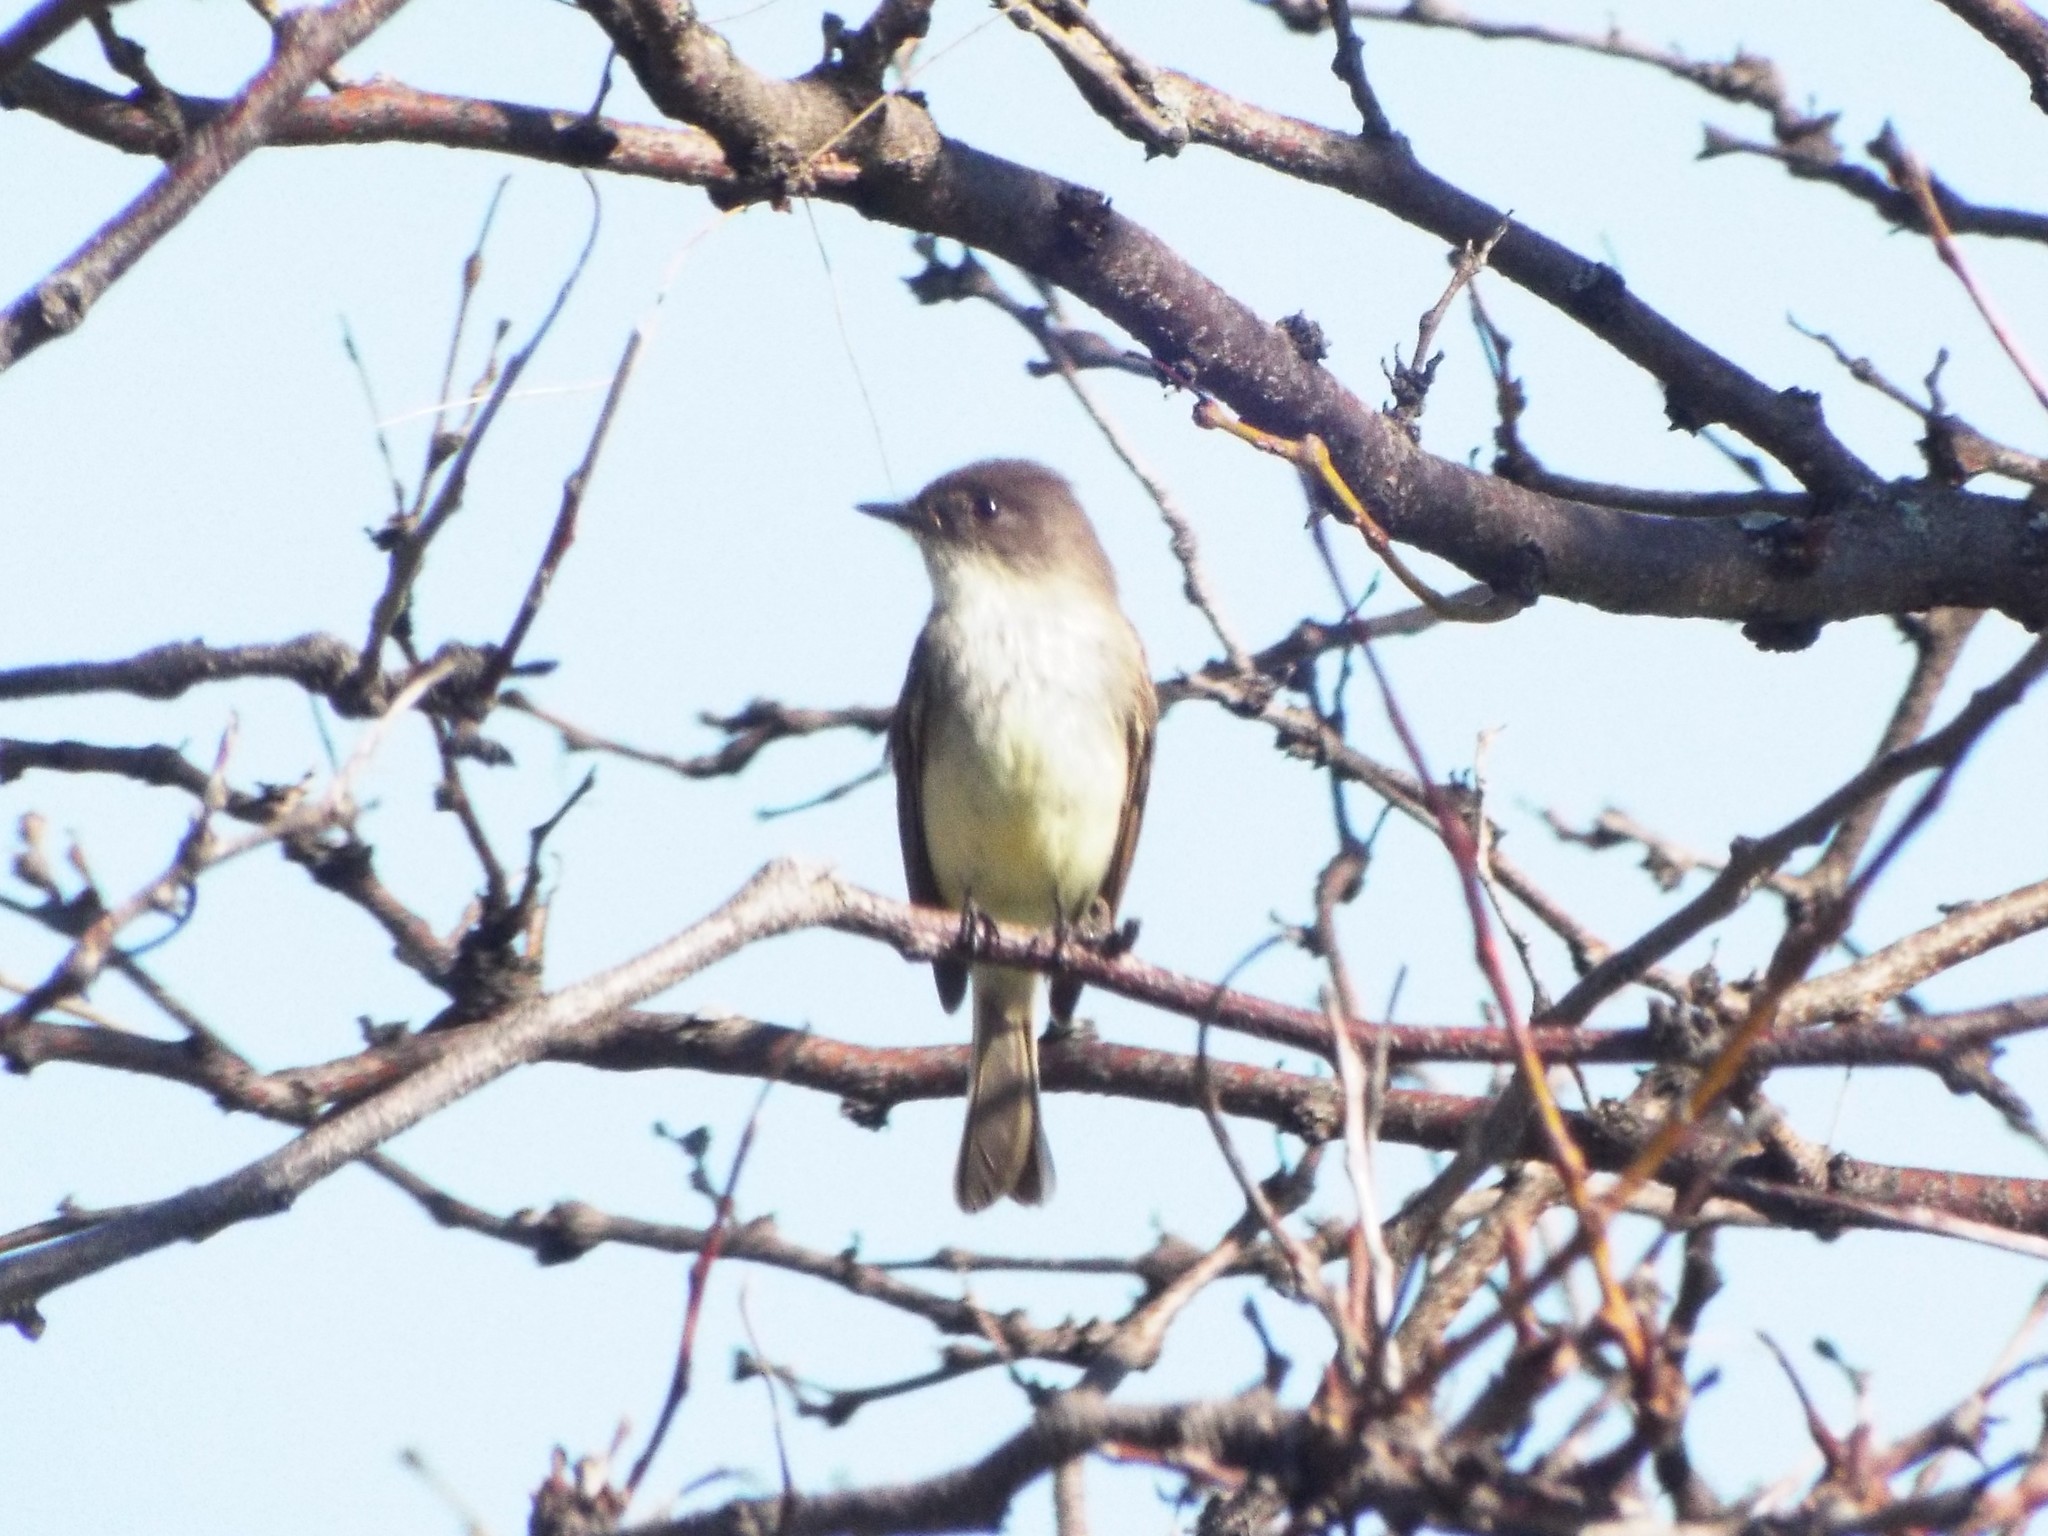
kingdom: Animalia
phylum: Chordata
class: Aves
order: Passeriformes
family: Tyrannidae
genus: Sayornis
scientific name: Sayornis phoebe
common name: Eastern phoebe
